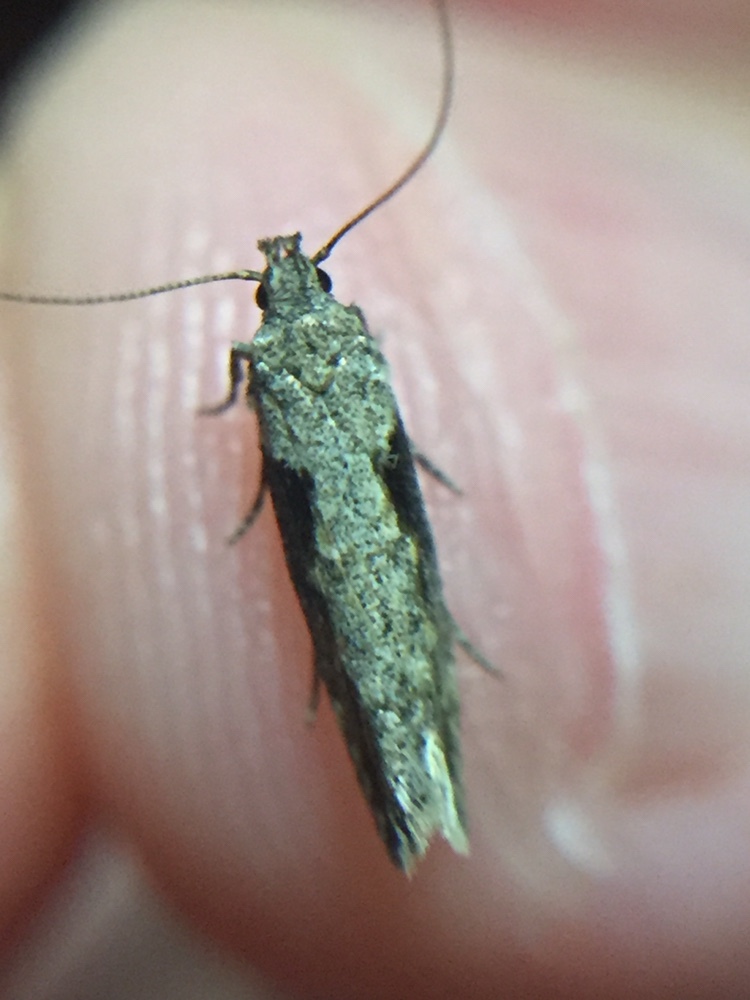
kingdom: Animalia
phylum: Arthropoda
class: Insecta
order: Lepidoptera
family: Gelechiidae
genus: Symmetrischema
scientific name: Symmetrischema tangolias
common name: Moth
